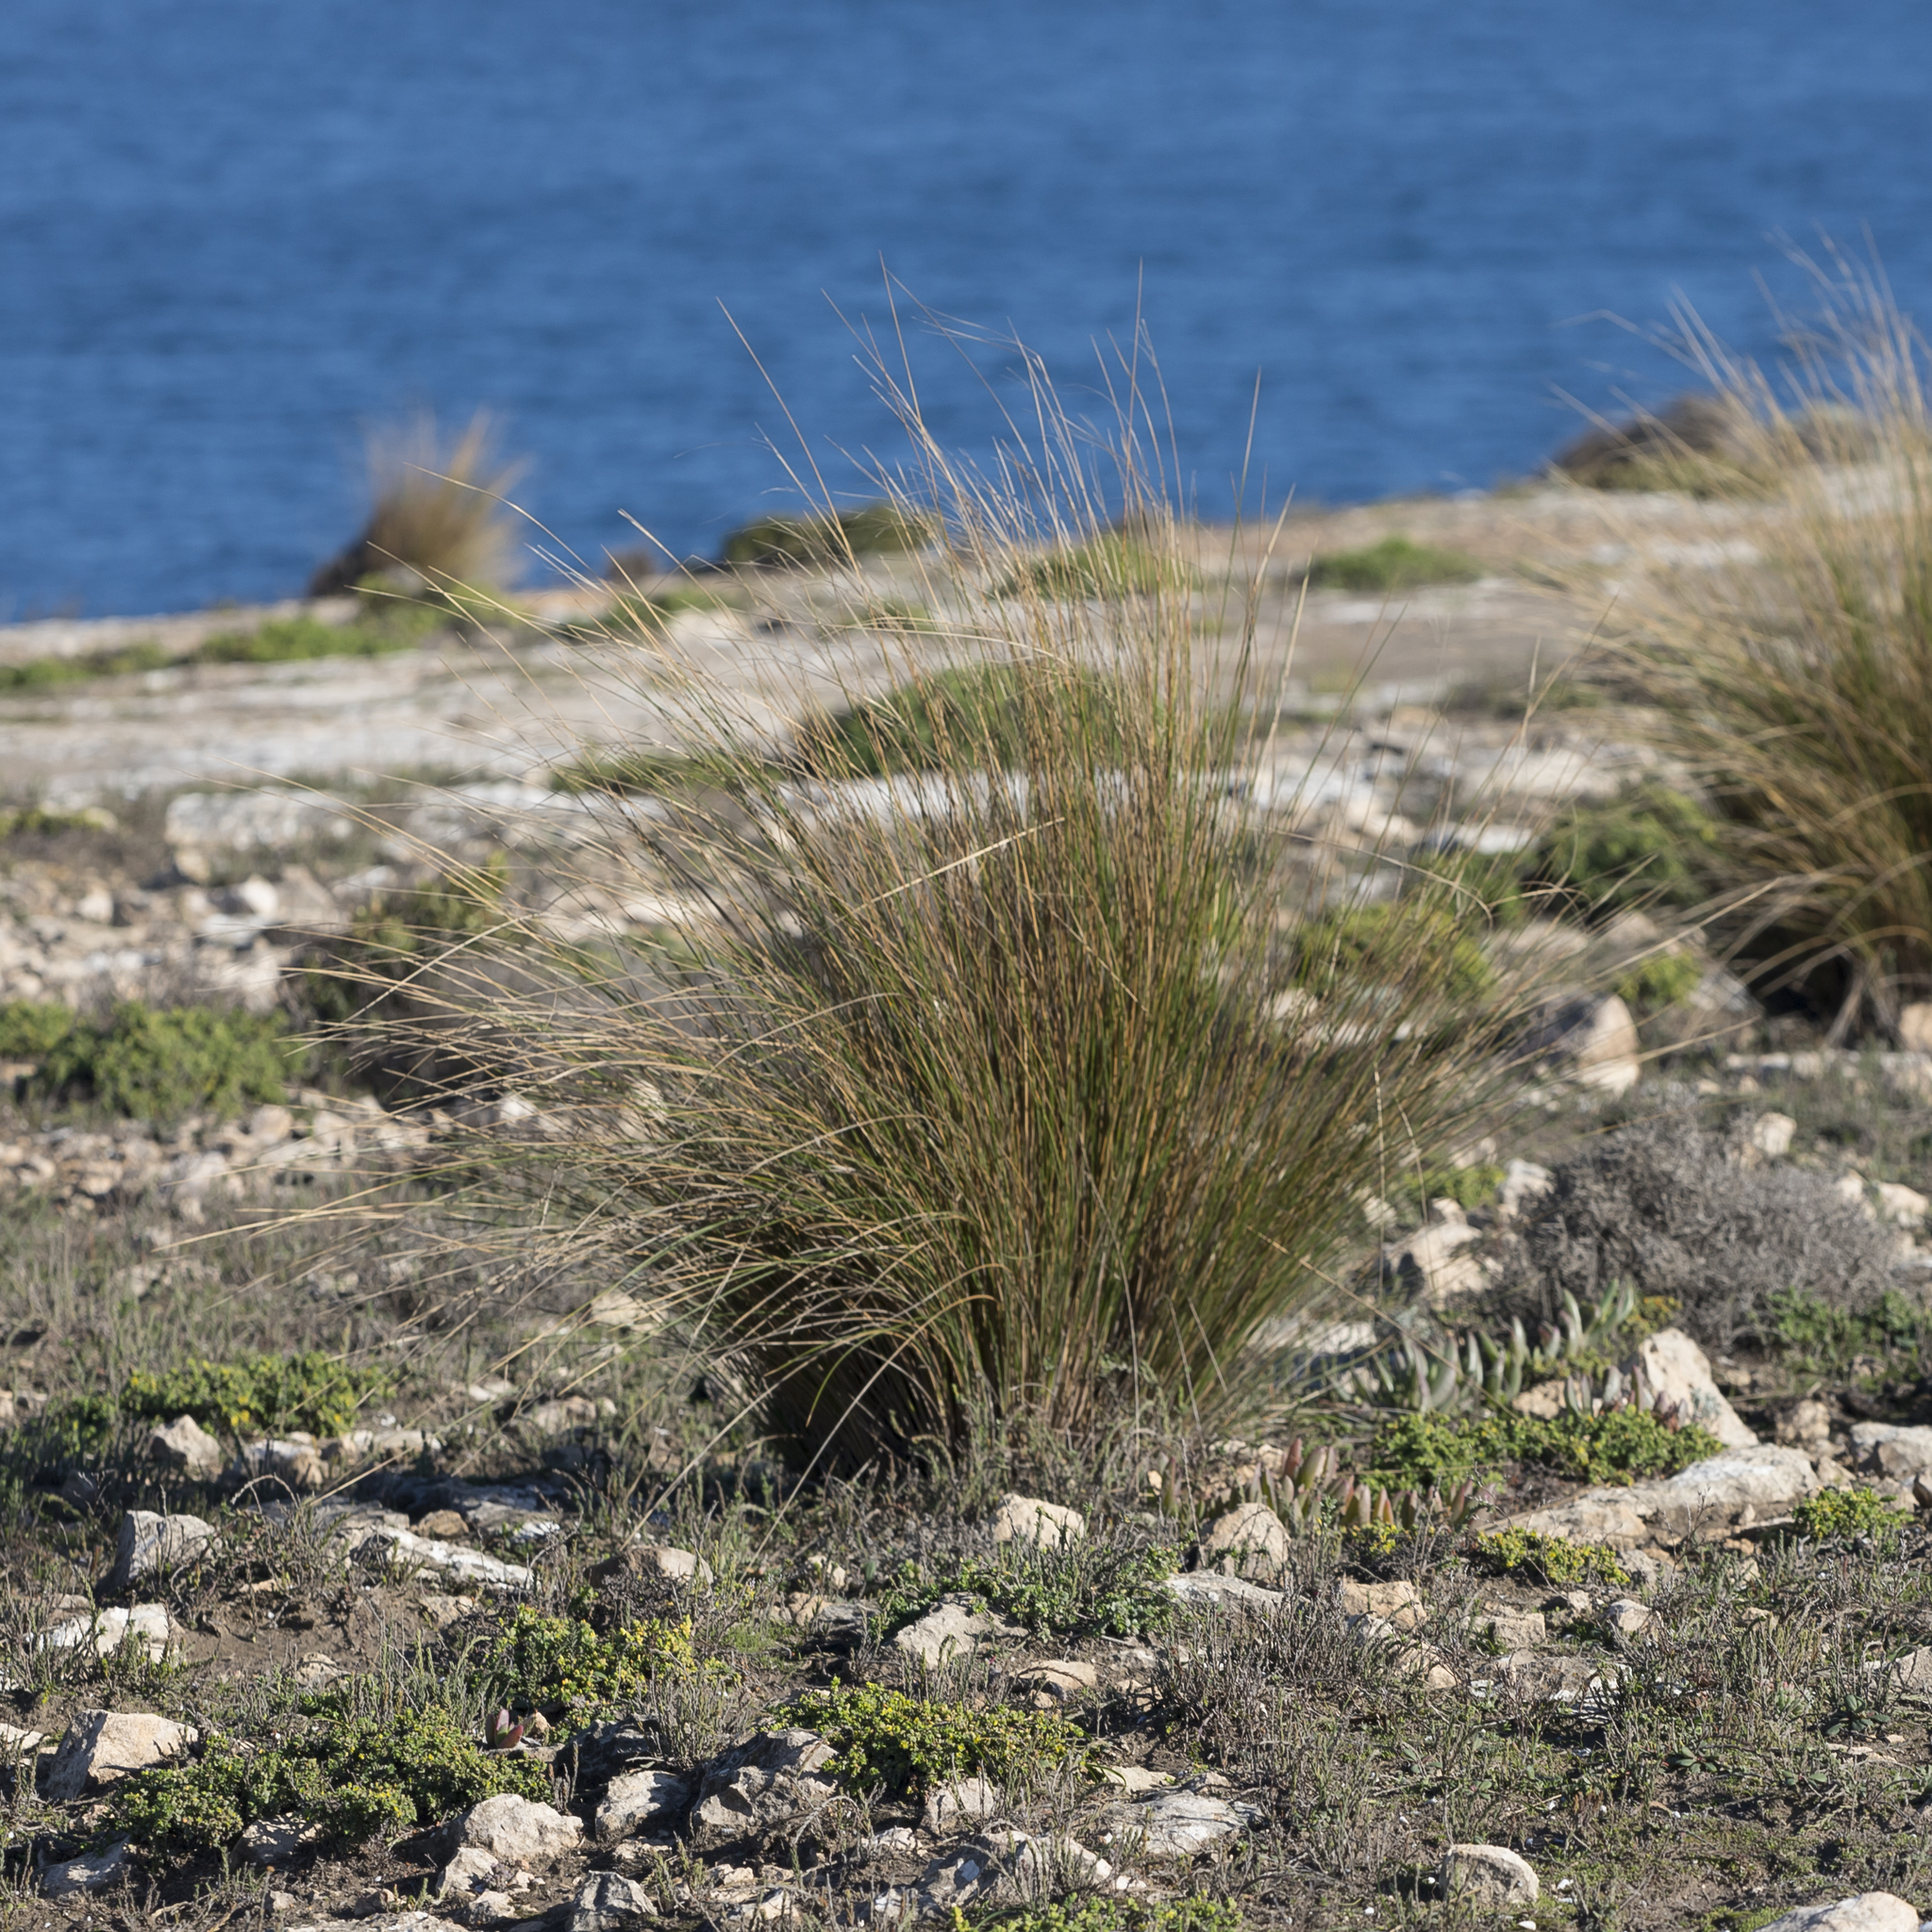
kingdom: Plantae
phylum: Tracheophyta
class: Liliopsida
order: Poales
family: Poaceae
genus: Austrostipa
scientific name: Austrostipa stipoides
